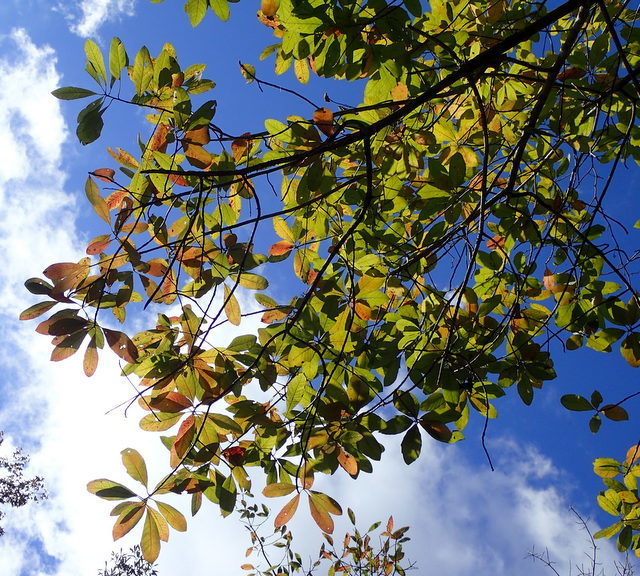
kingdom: Plantae
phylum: Tracheophyta
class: Magnoliopsida
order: Cornales
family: Nyssaceae
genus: Nyssa
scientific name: Nyssa ogeche
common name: Ogeechee tupelo
